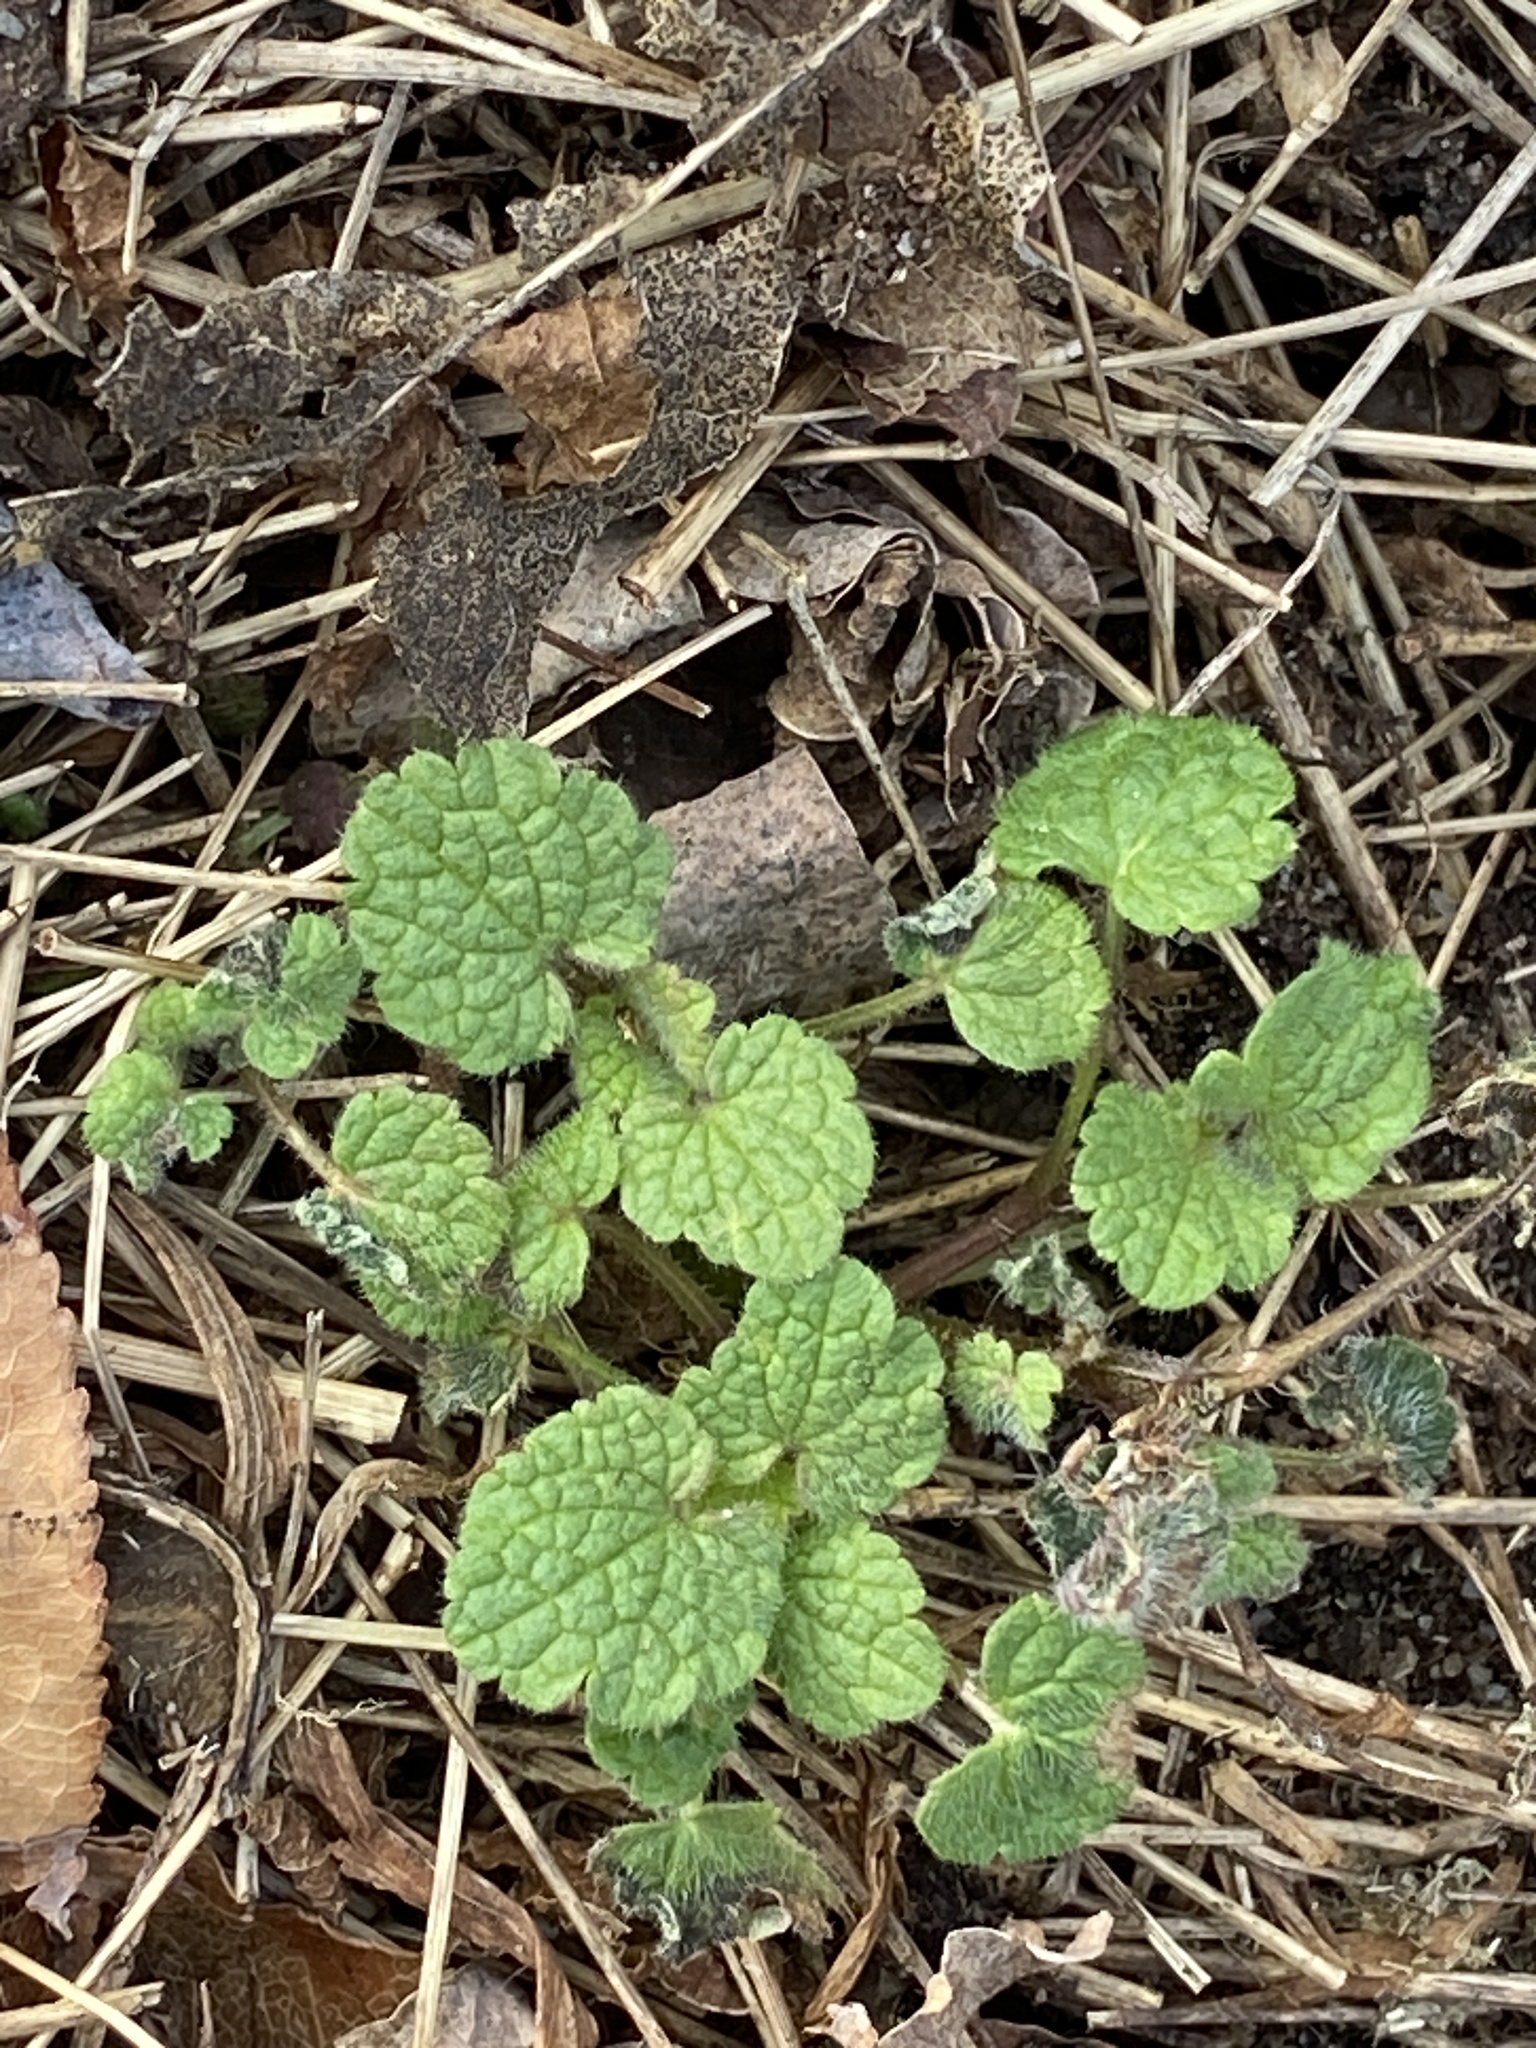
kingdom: Plantae
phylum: Tracheophyta
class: Magnoliopsida
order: Lamiales
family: Lamiaceae
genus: Lamium
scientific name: Lamium purpureum
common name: Red dead-nettle
